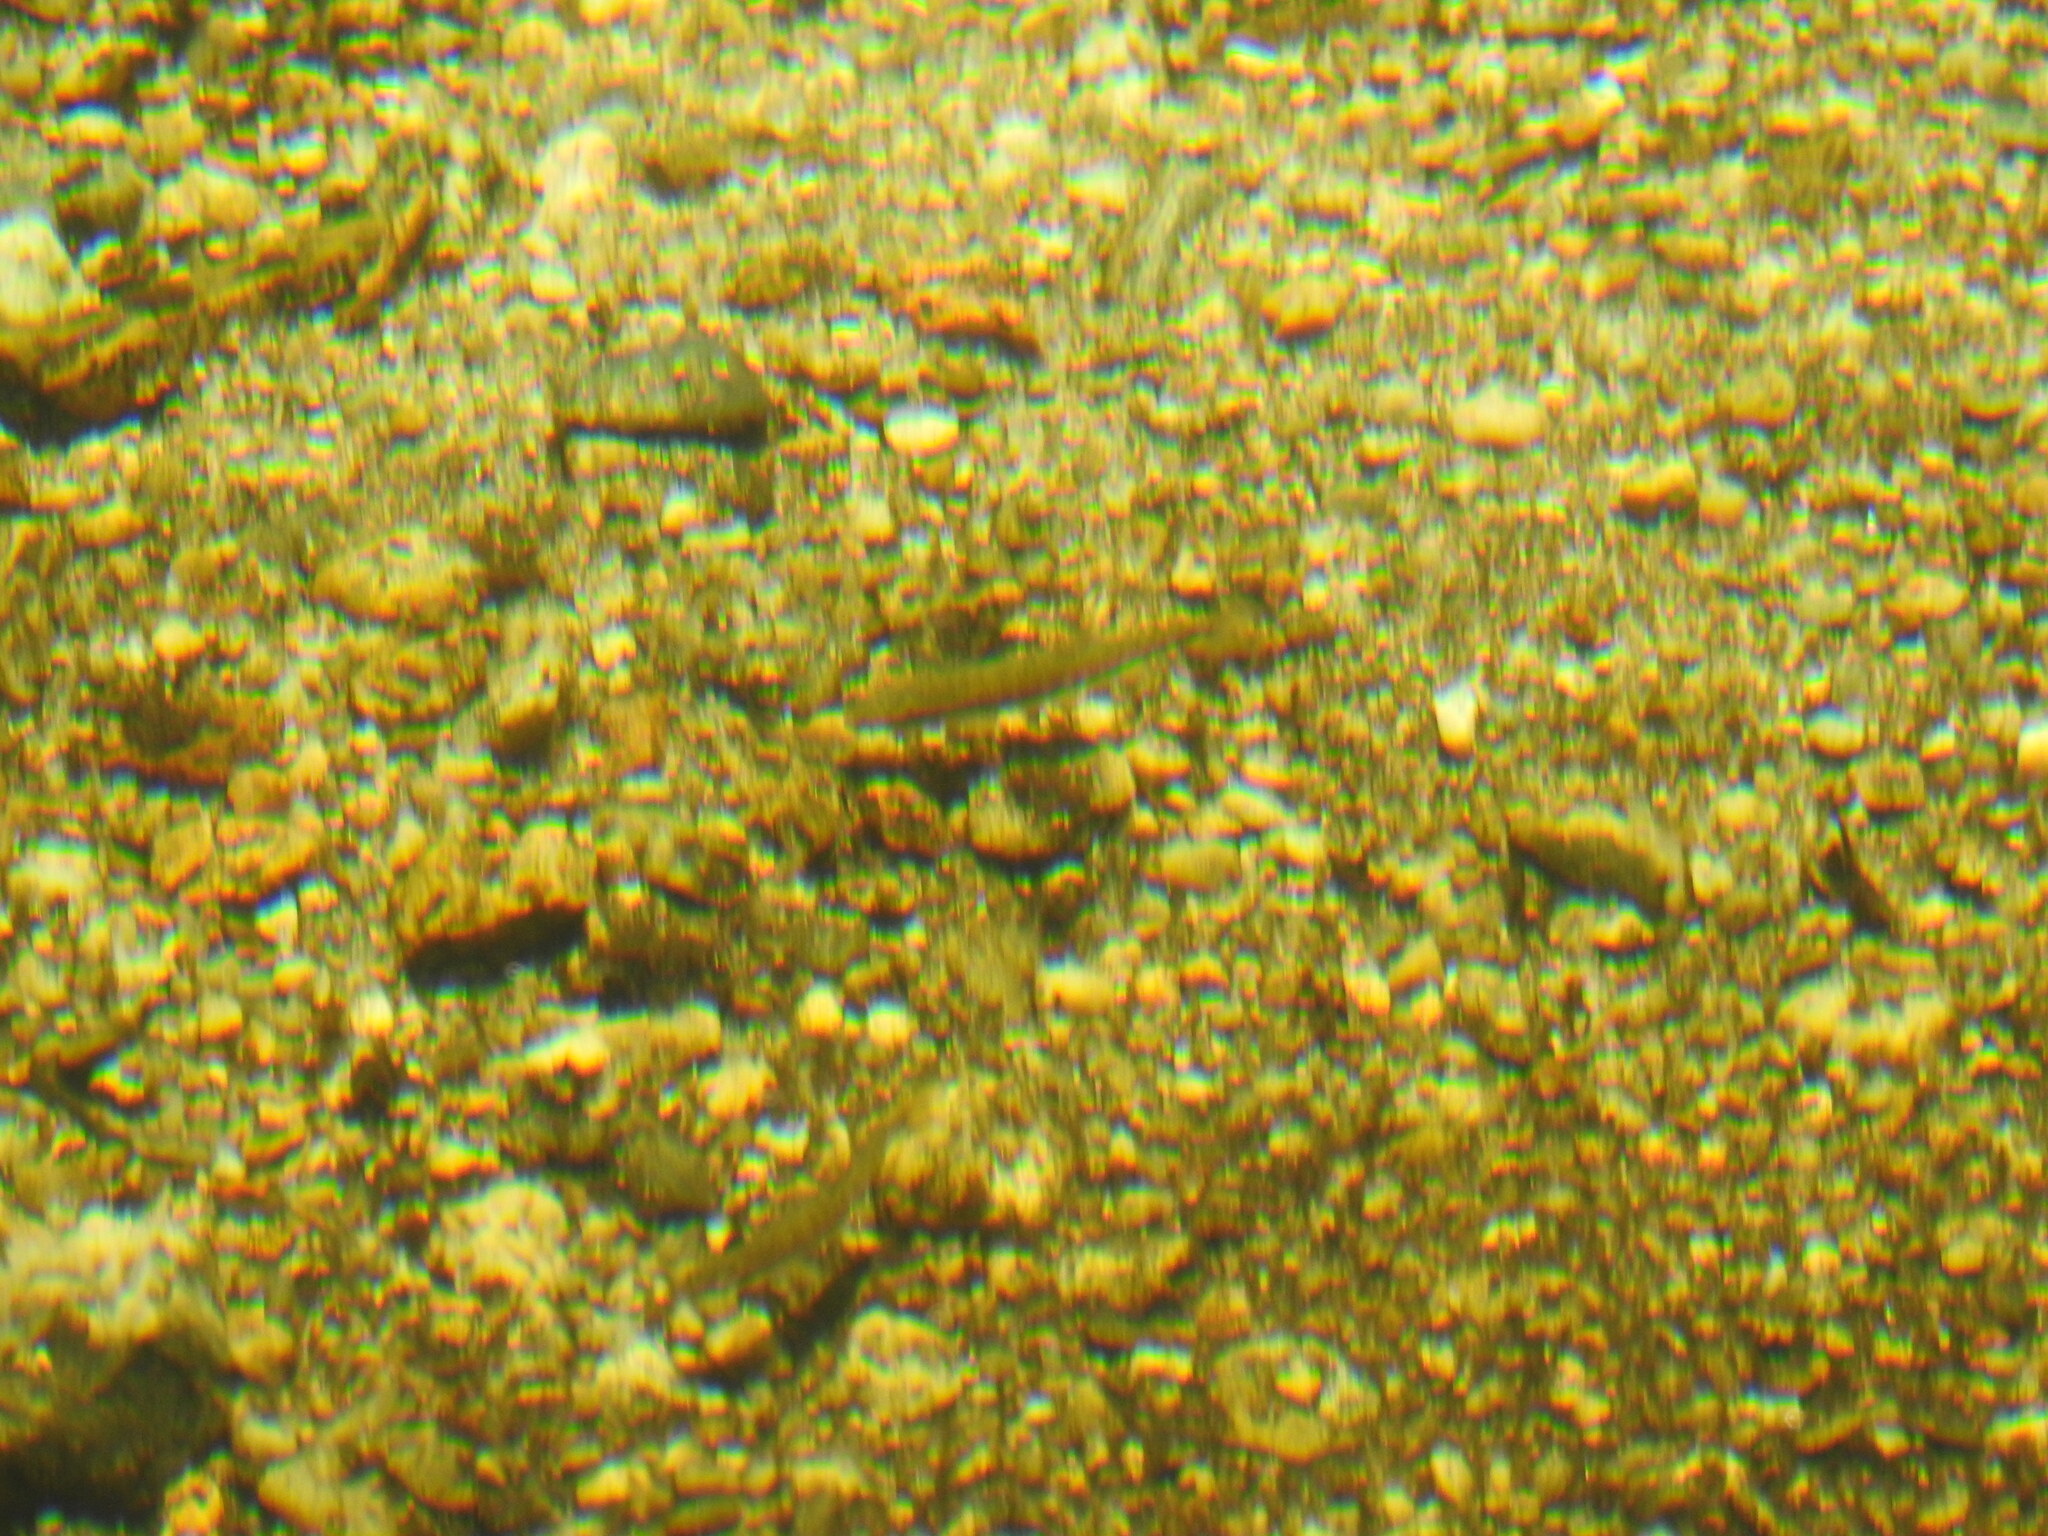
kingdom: Animalia
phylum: Chordata
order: Cypriniformes
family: Cyprinidae
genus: Phoxinus
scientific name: Phoxinus septimaniae
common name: Languedoc minnow
